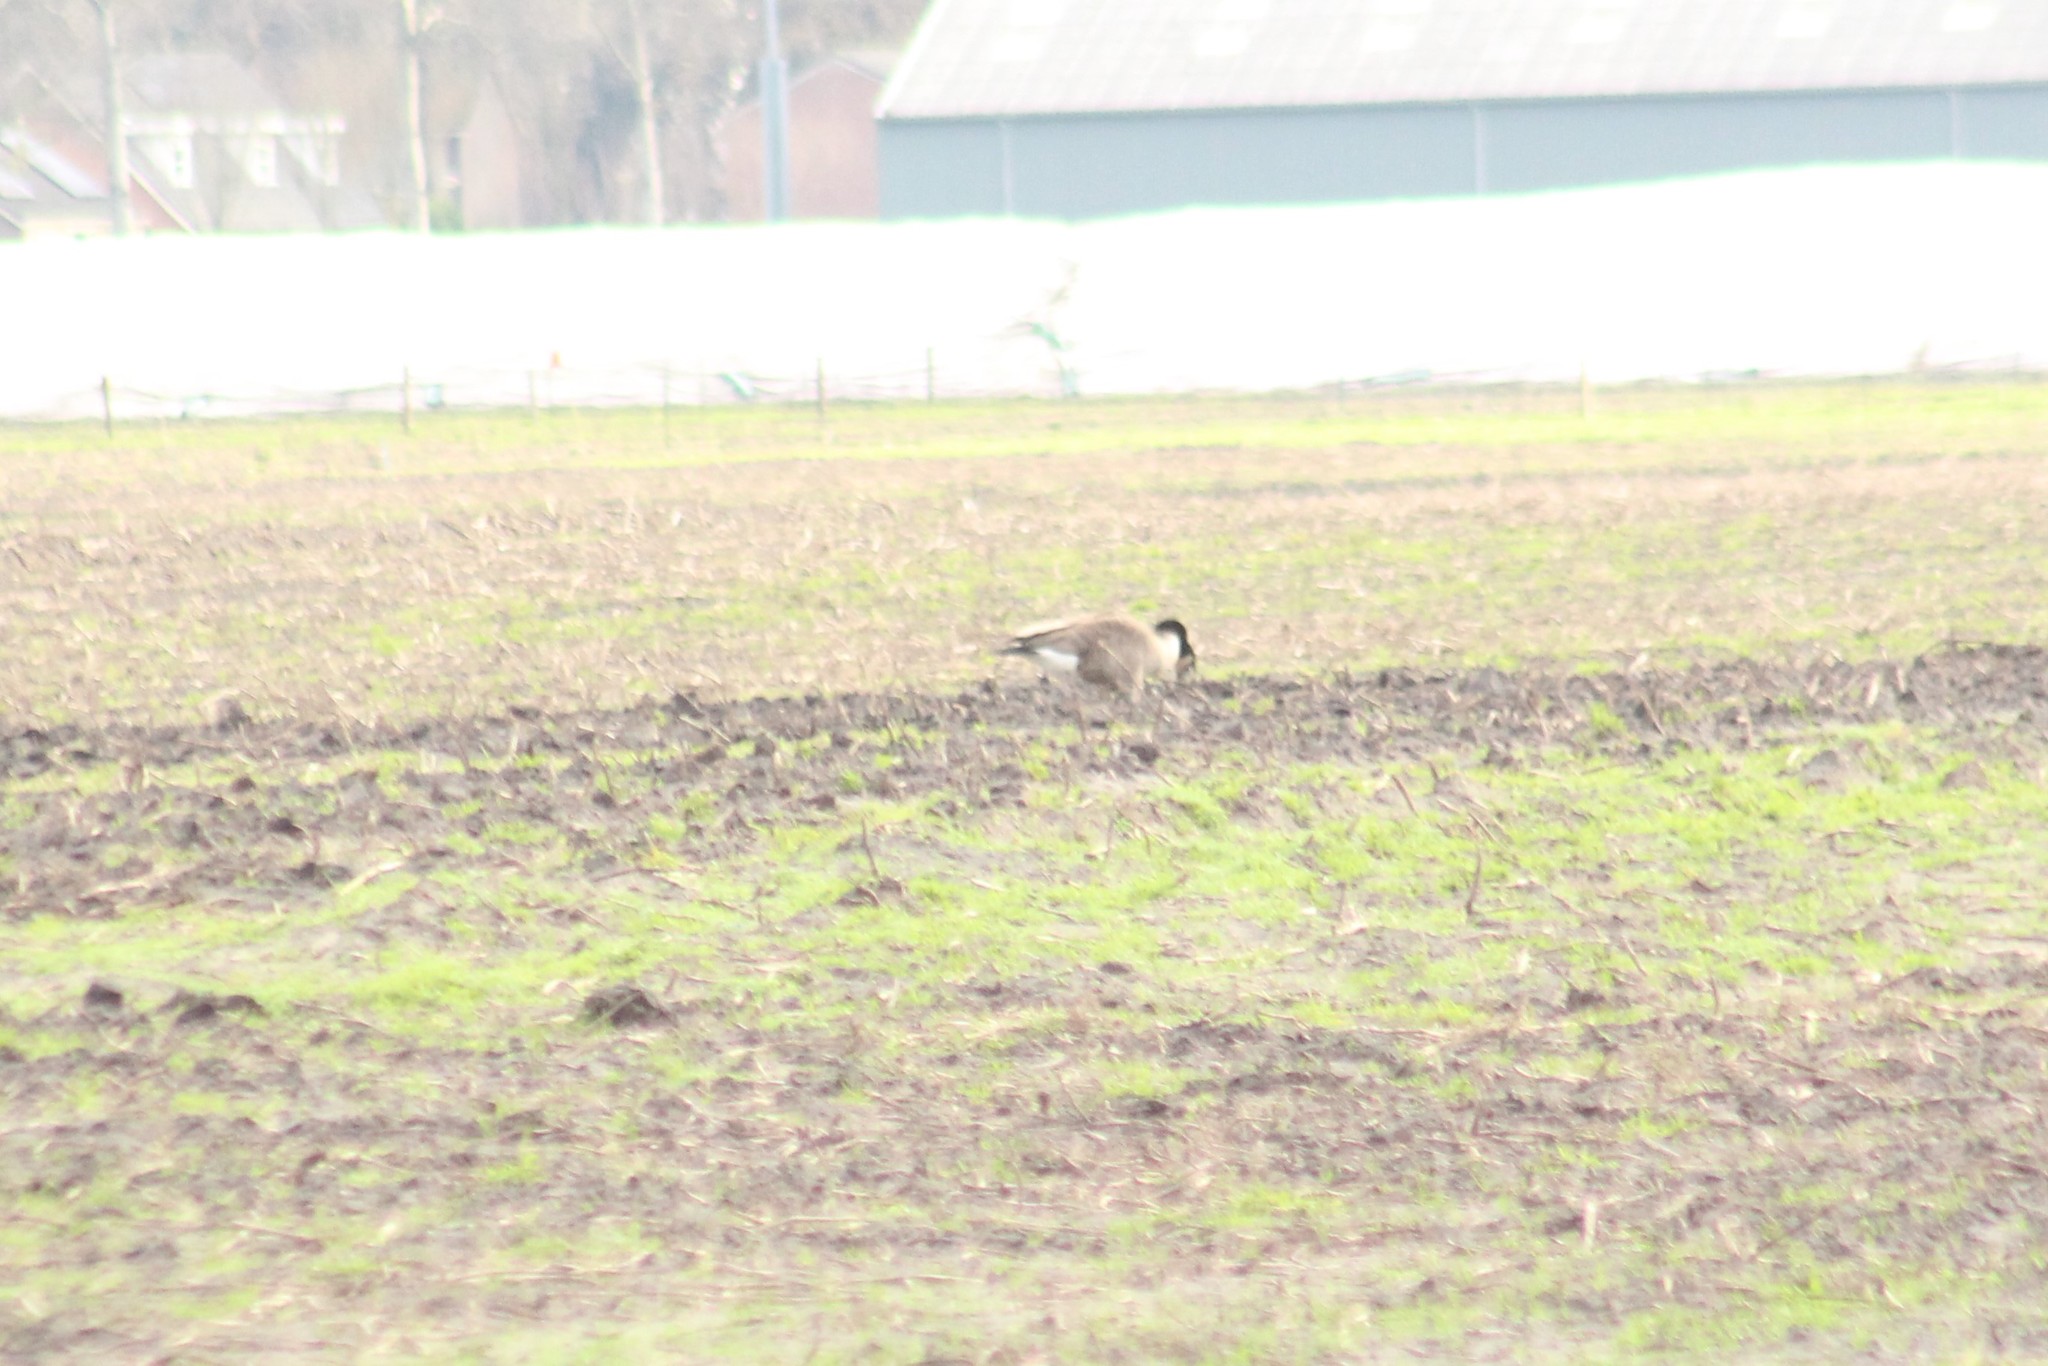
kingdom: Animalia
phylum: Chordata
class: Aves
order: Anseriformes
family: Anatidae
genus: Branta
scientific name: Branta canadensis
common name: Canada goose
